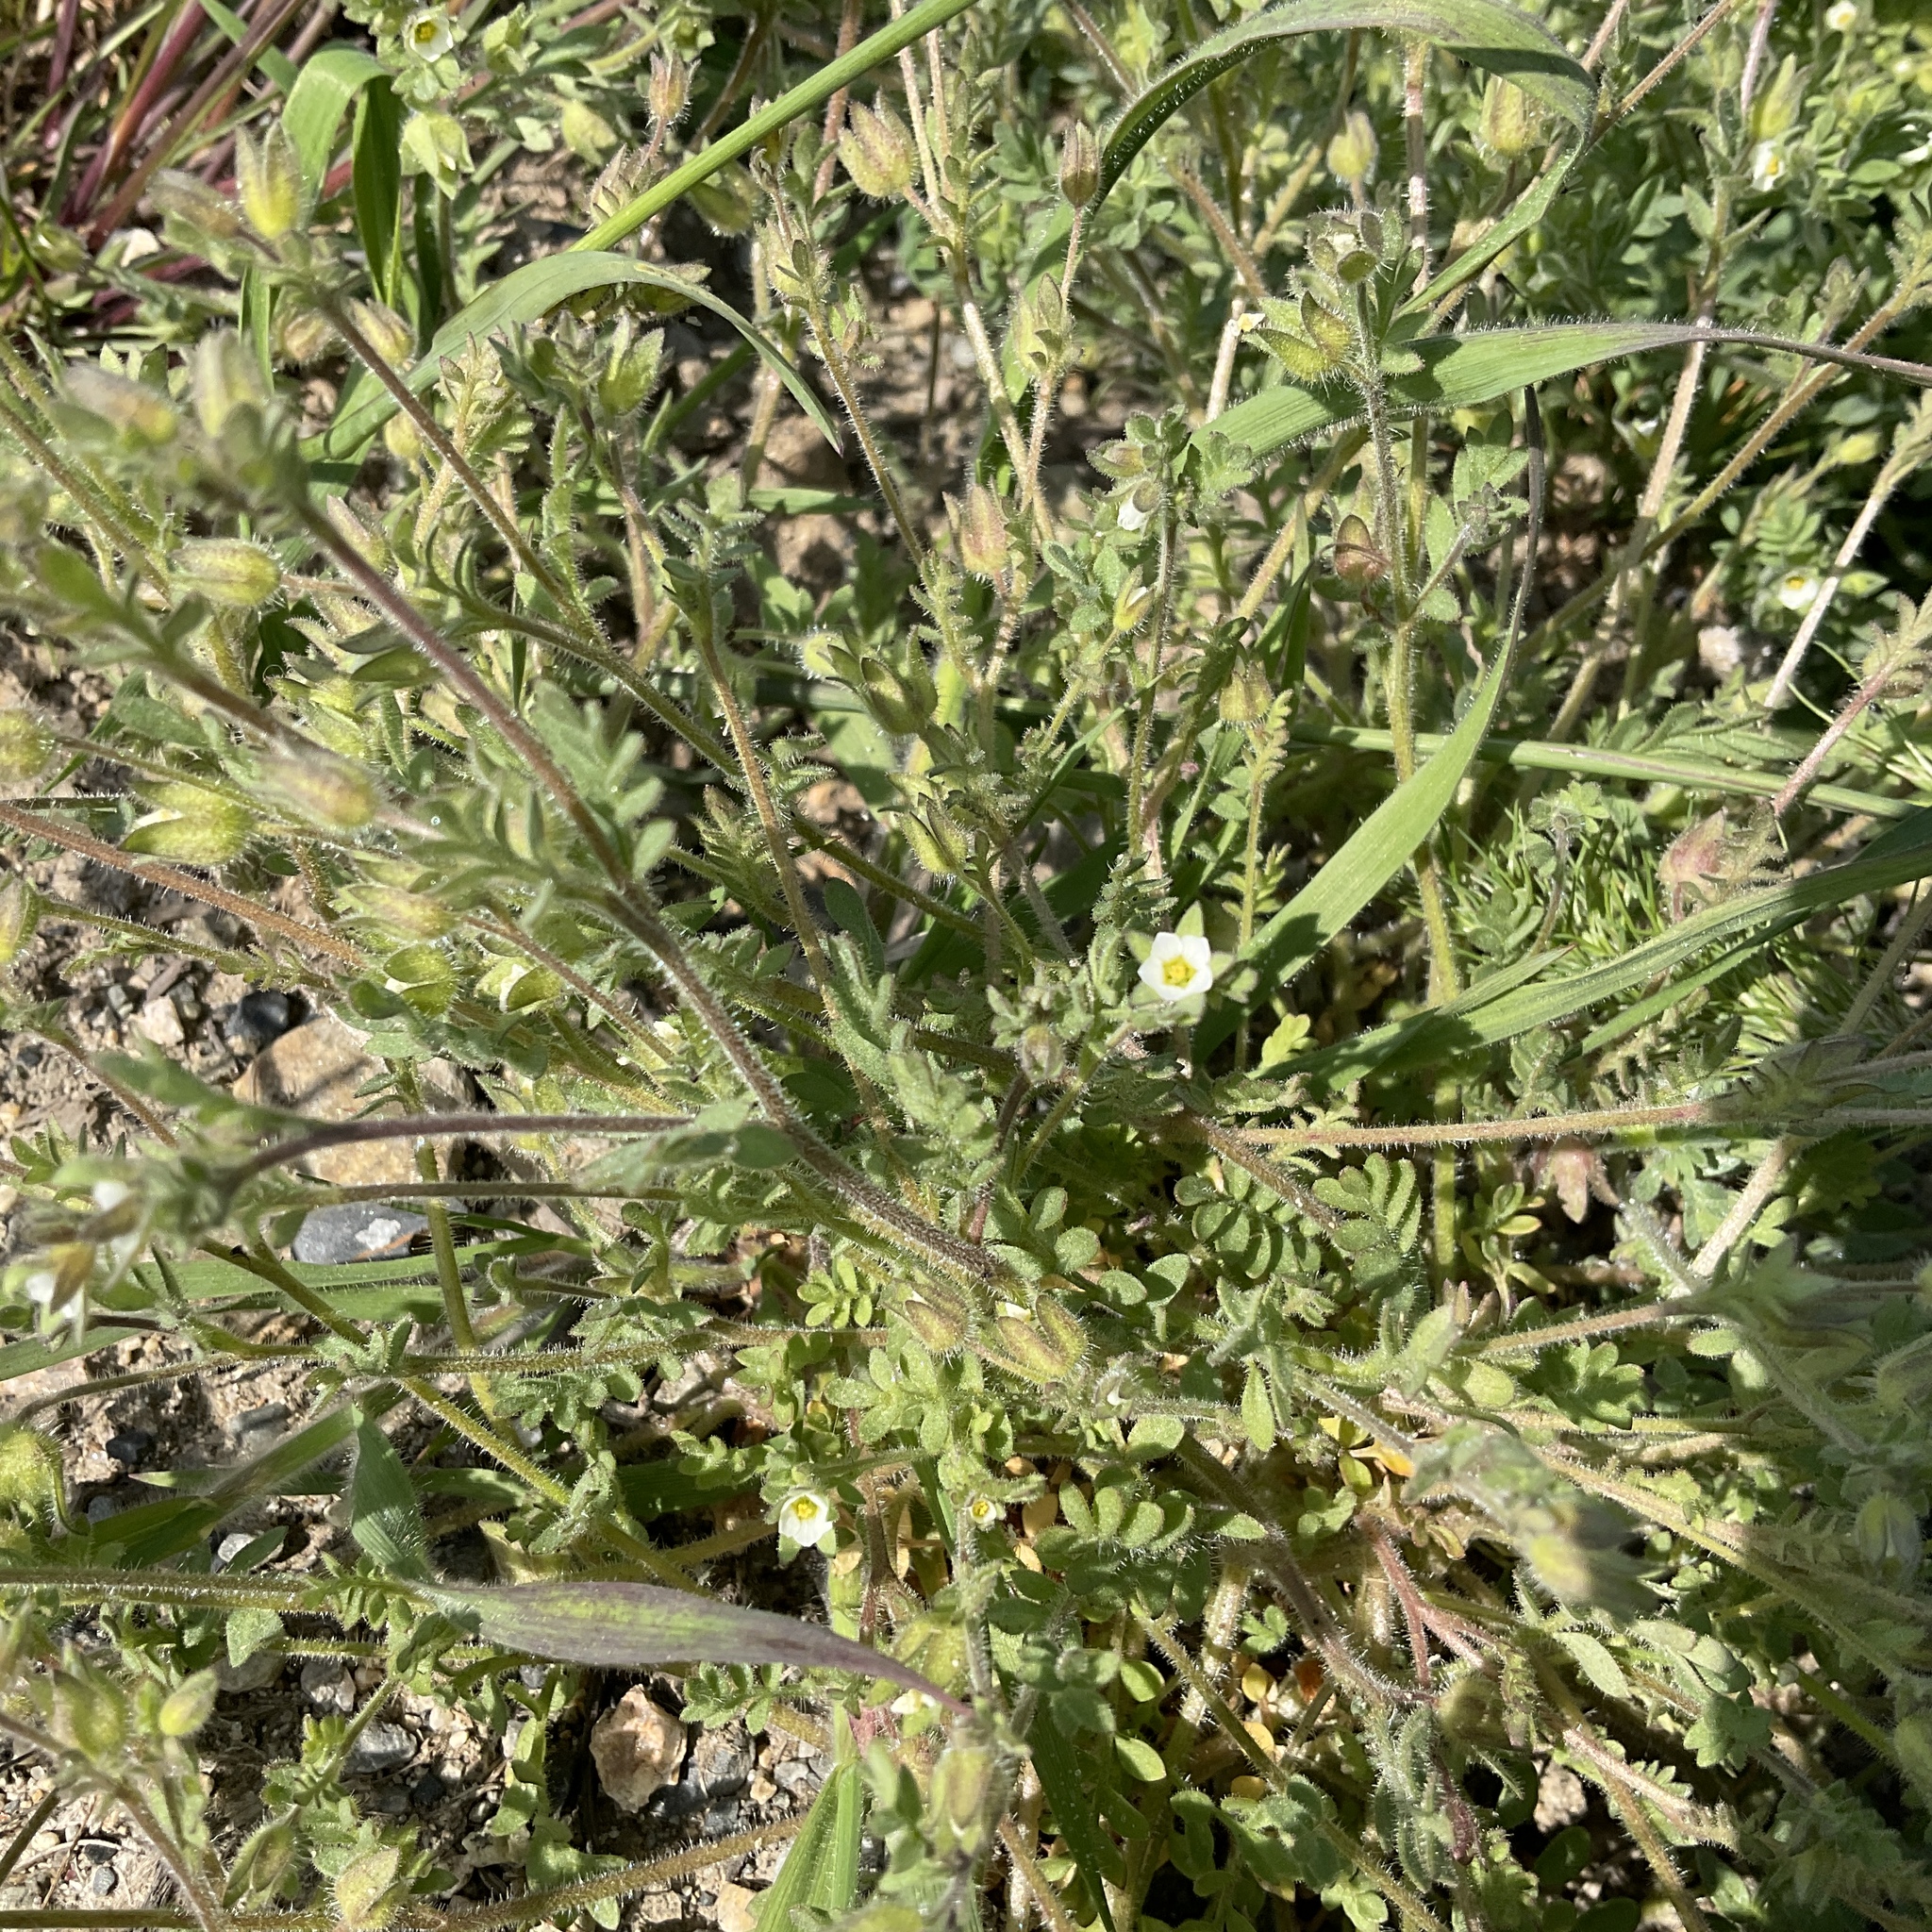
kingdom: Plantae
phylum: Tracheophyta
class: Magnoliopsida
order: Ericales
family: Polemoniaceae
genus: Polemonium
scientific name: Polemonium micranthum
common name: Annual jacob's-ladder
